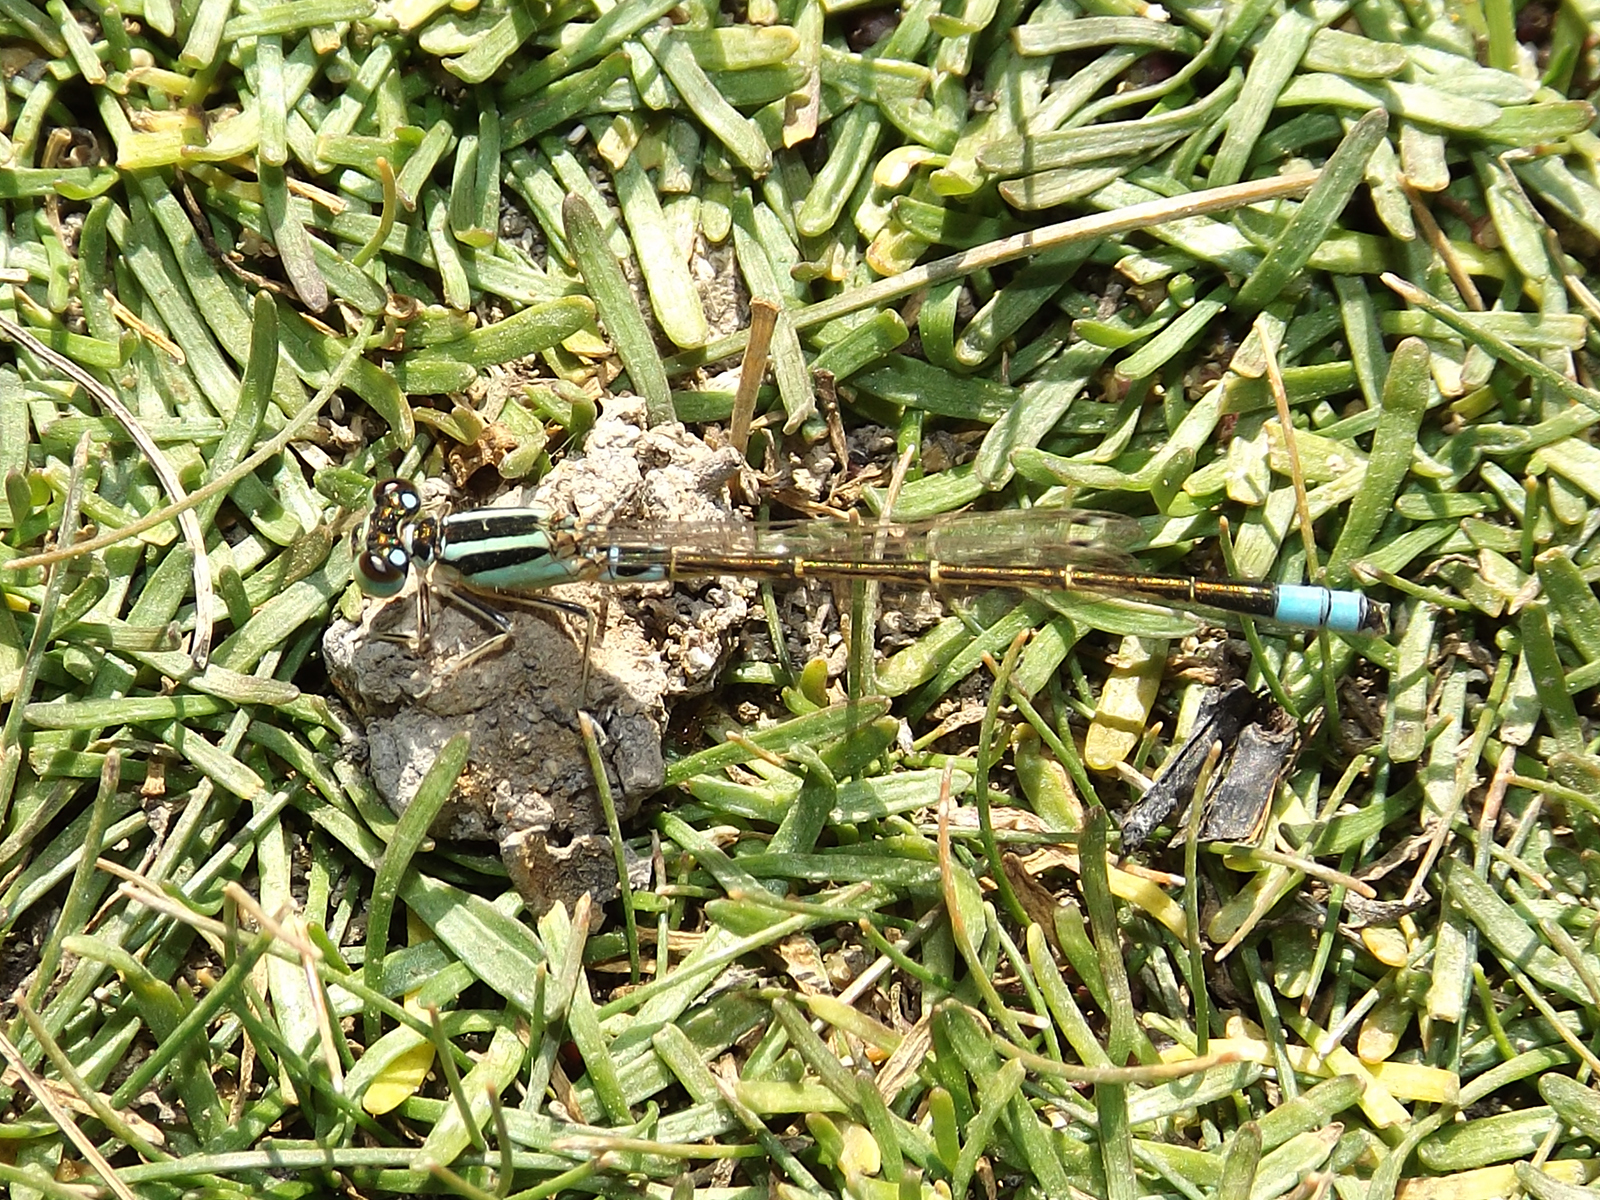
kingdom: Animalia
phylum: Arthropoda
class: Insecta
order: Odonata
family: Coenagrionidae
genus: Ischnura
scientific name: Ischnura fluviatilis
